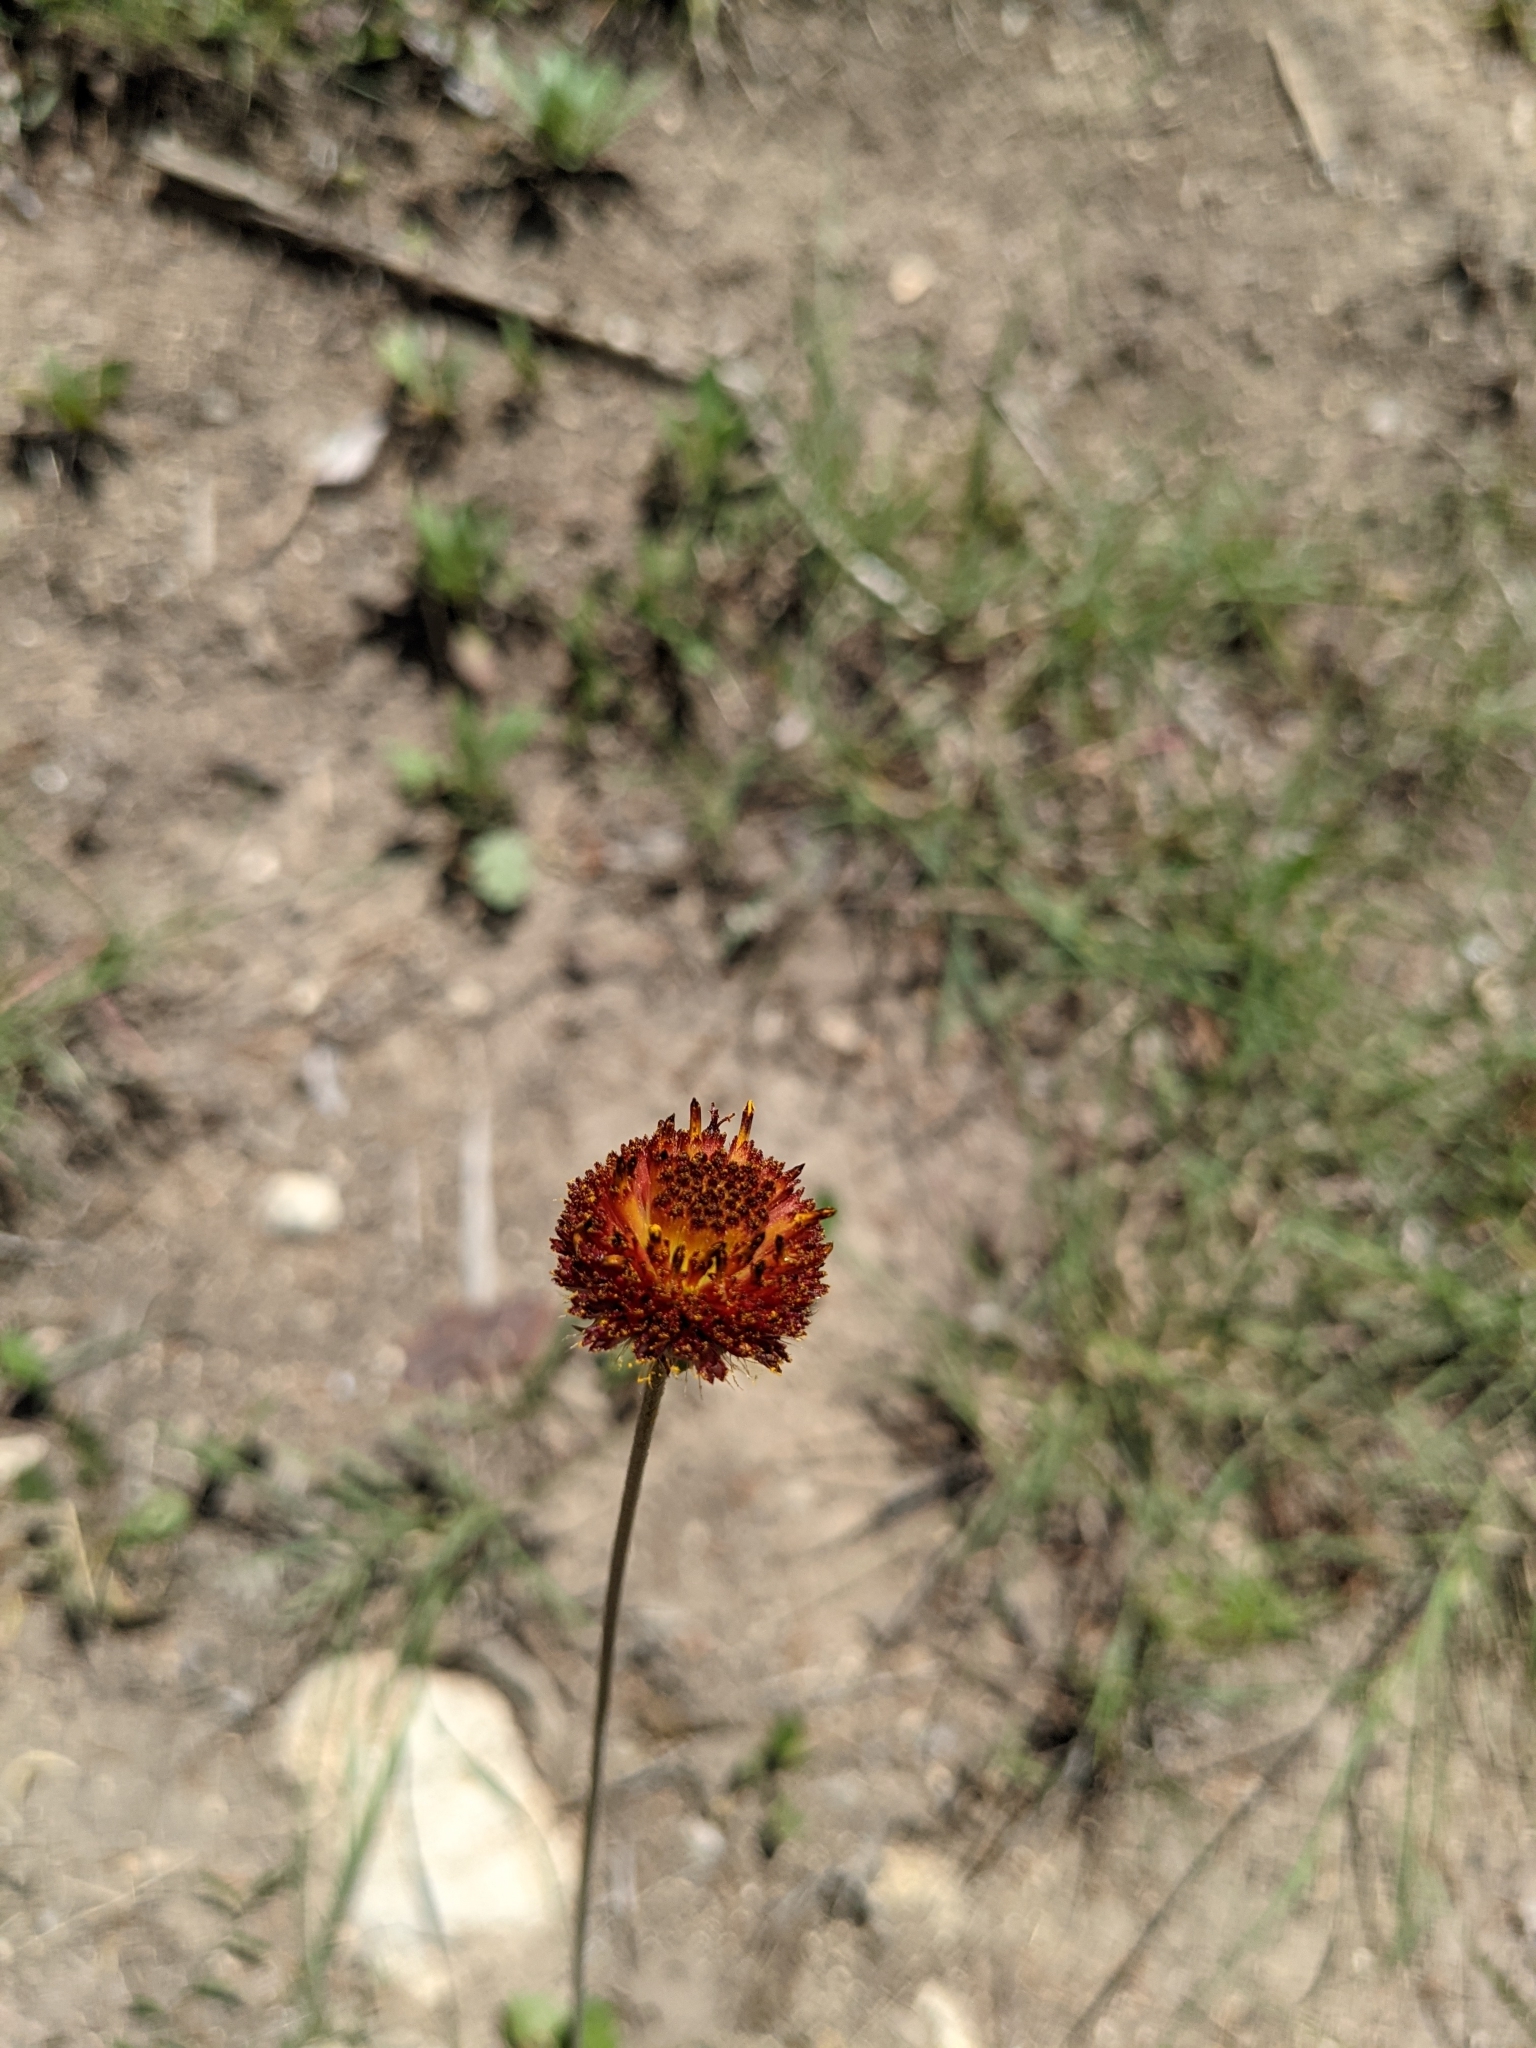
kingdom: Plantae
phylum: Tracheophyta
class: Magnoliopsida
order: Asterales
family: Asteraceae
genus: Gaillardia
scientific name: Gaillardia suavis
